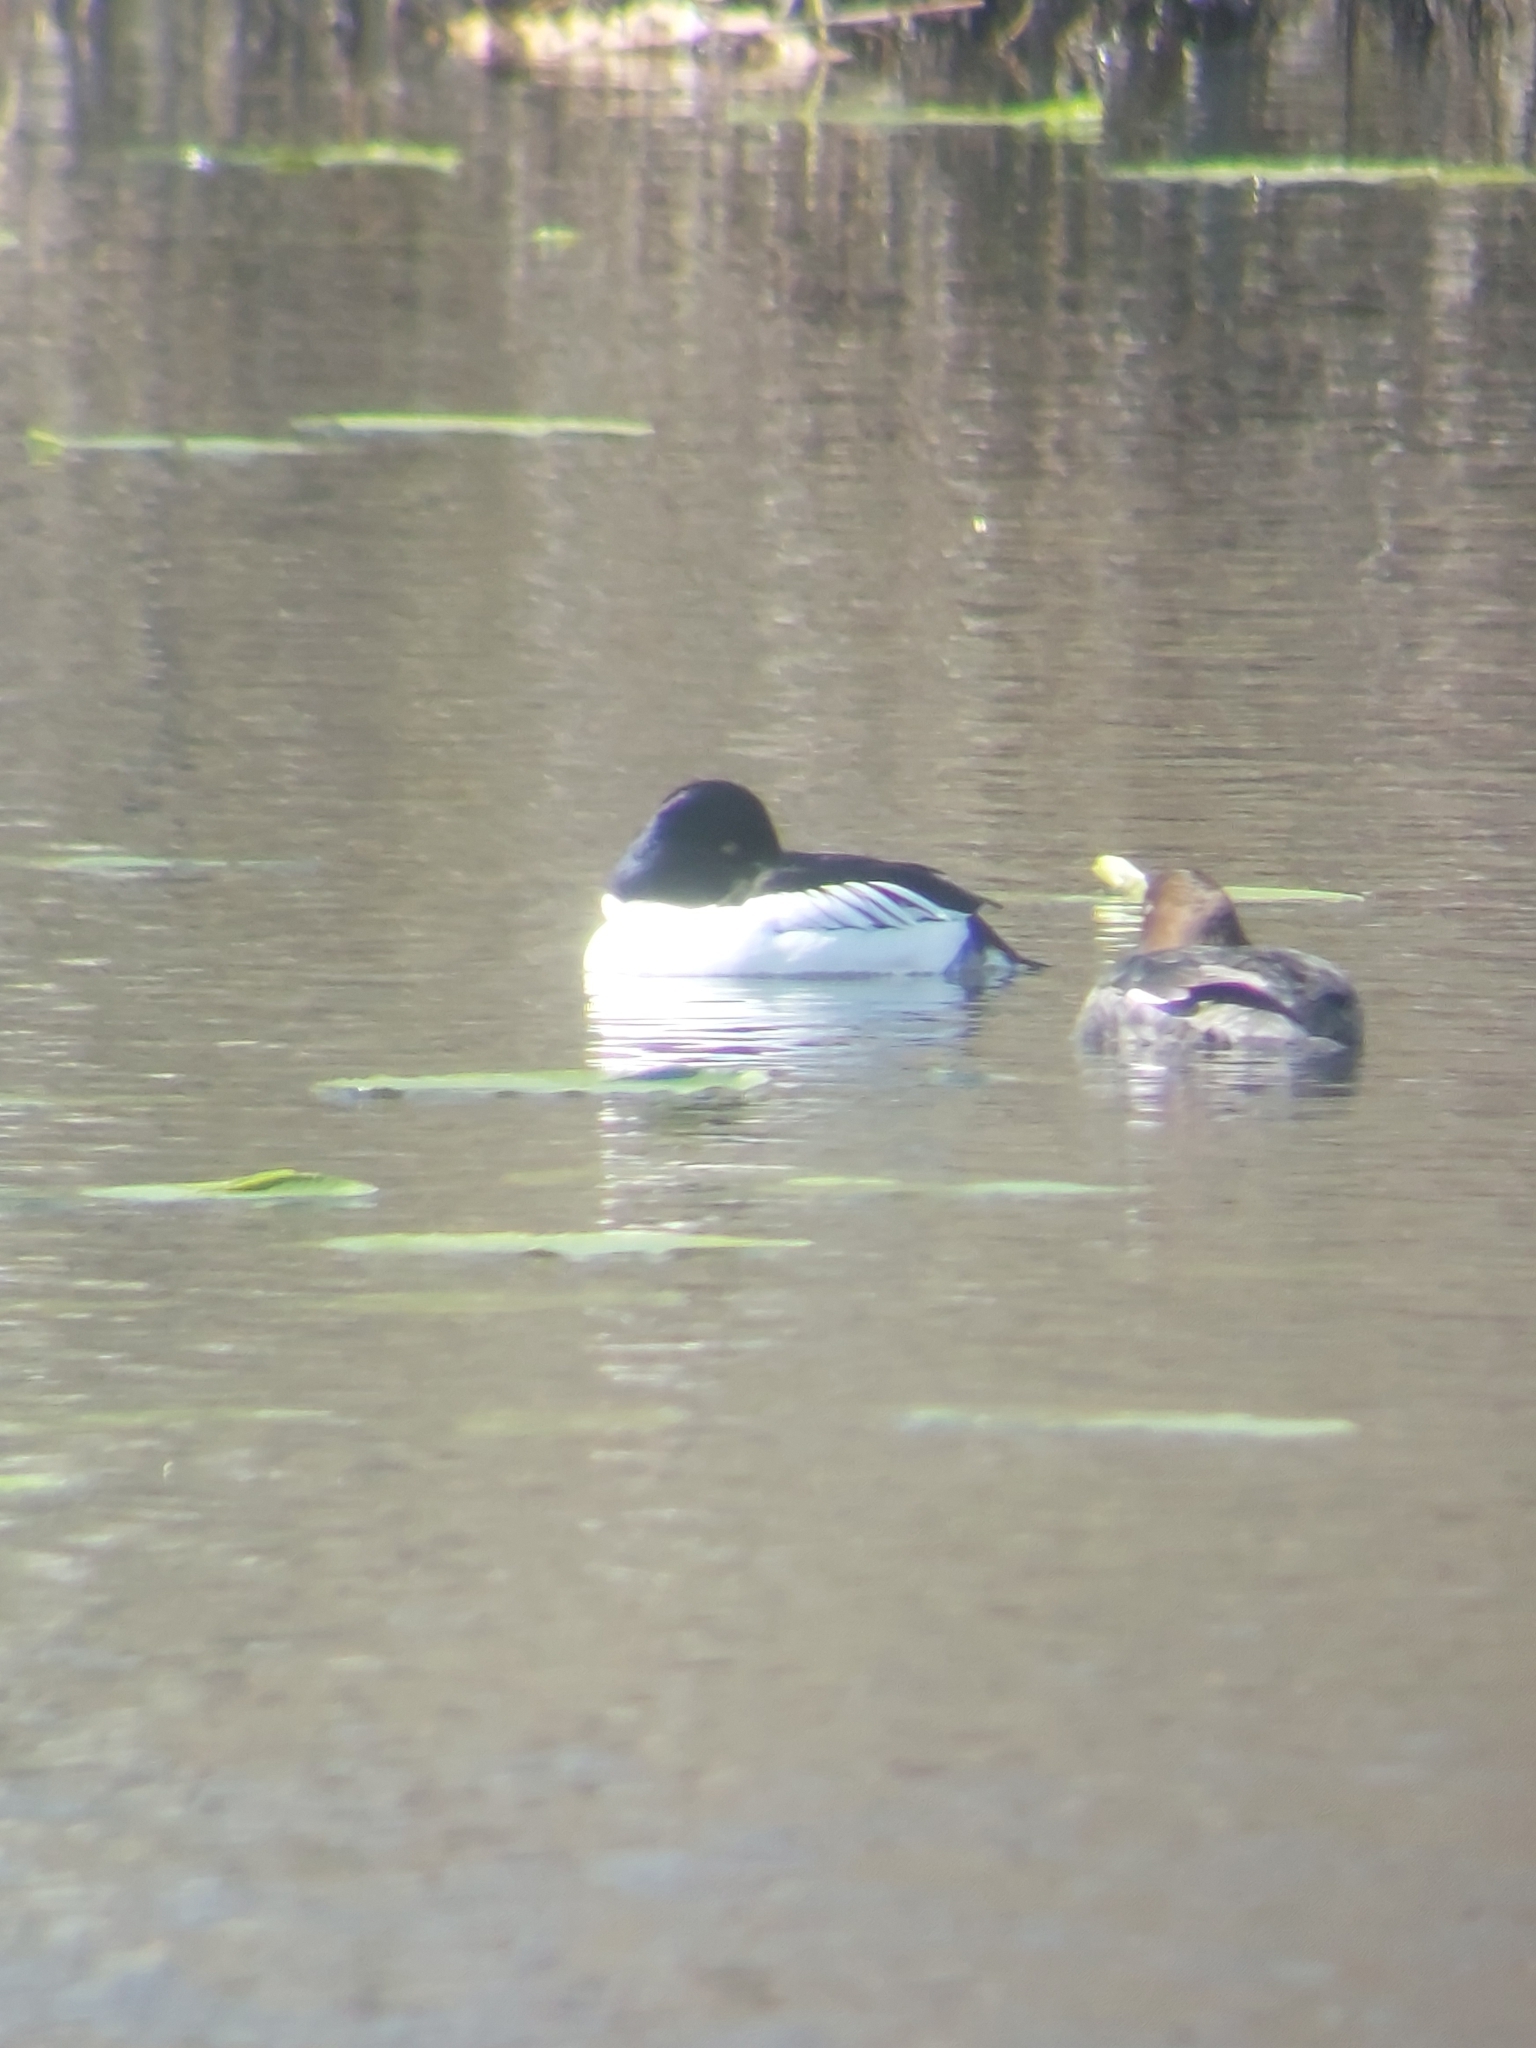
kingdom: Animalia
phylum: Chordata
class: Aves
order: Anseriformes
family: Anatidae
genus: Bucephala
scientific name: Bucephala clangula
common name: Common goldeneye
